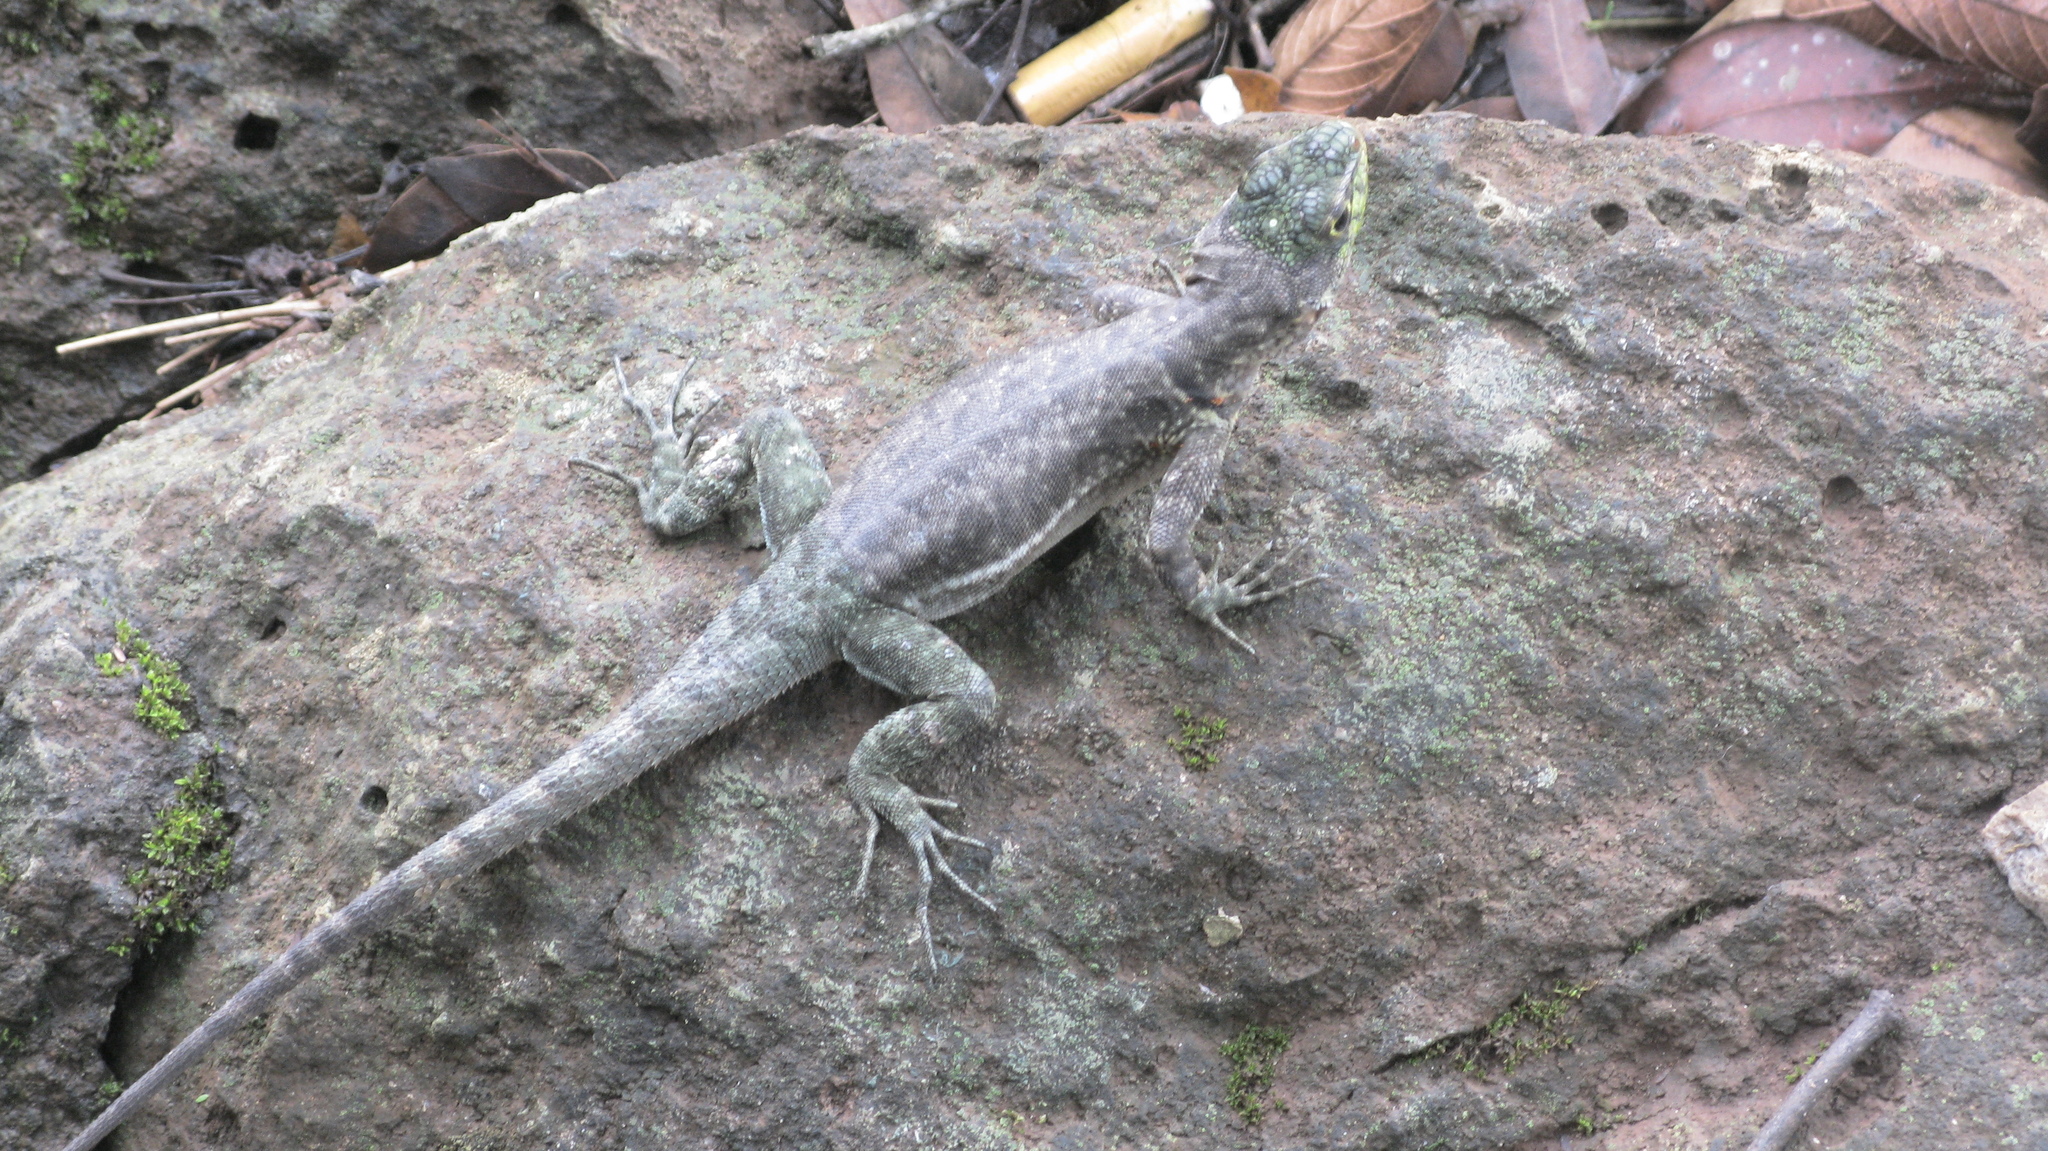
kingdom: Animalia
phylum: Chordata
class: Squamata
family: Tropiduridae
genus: Tropidurus
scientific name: Tropidurus catalanensis
